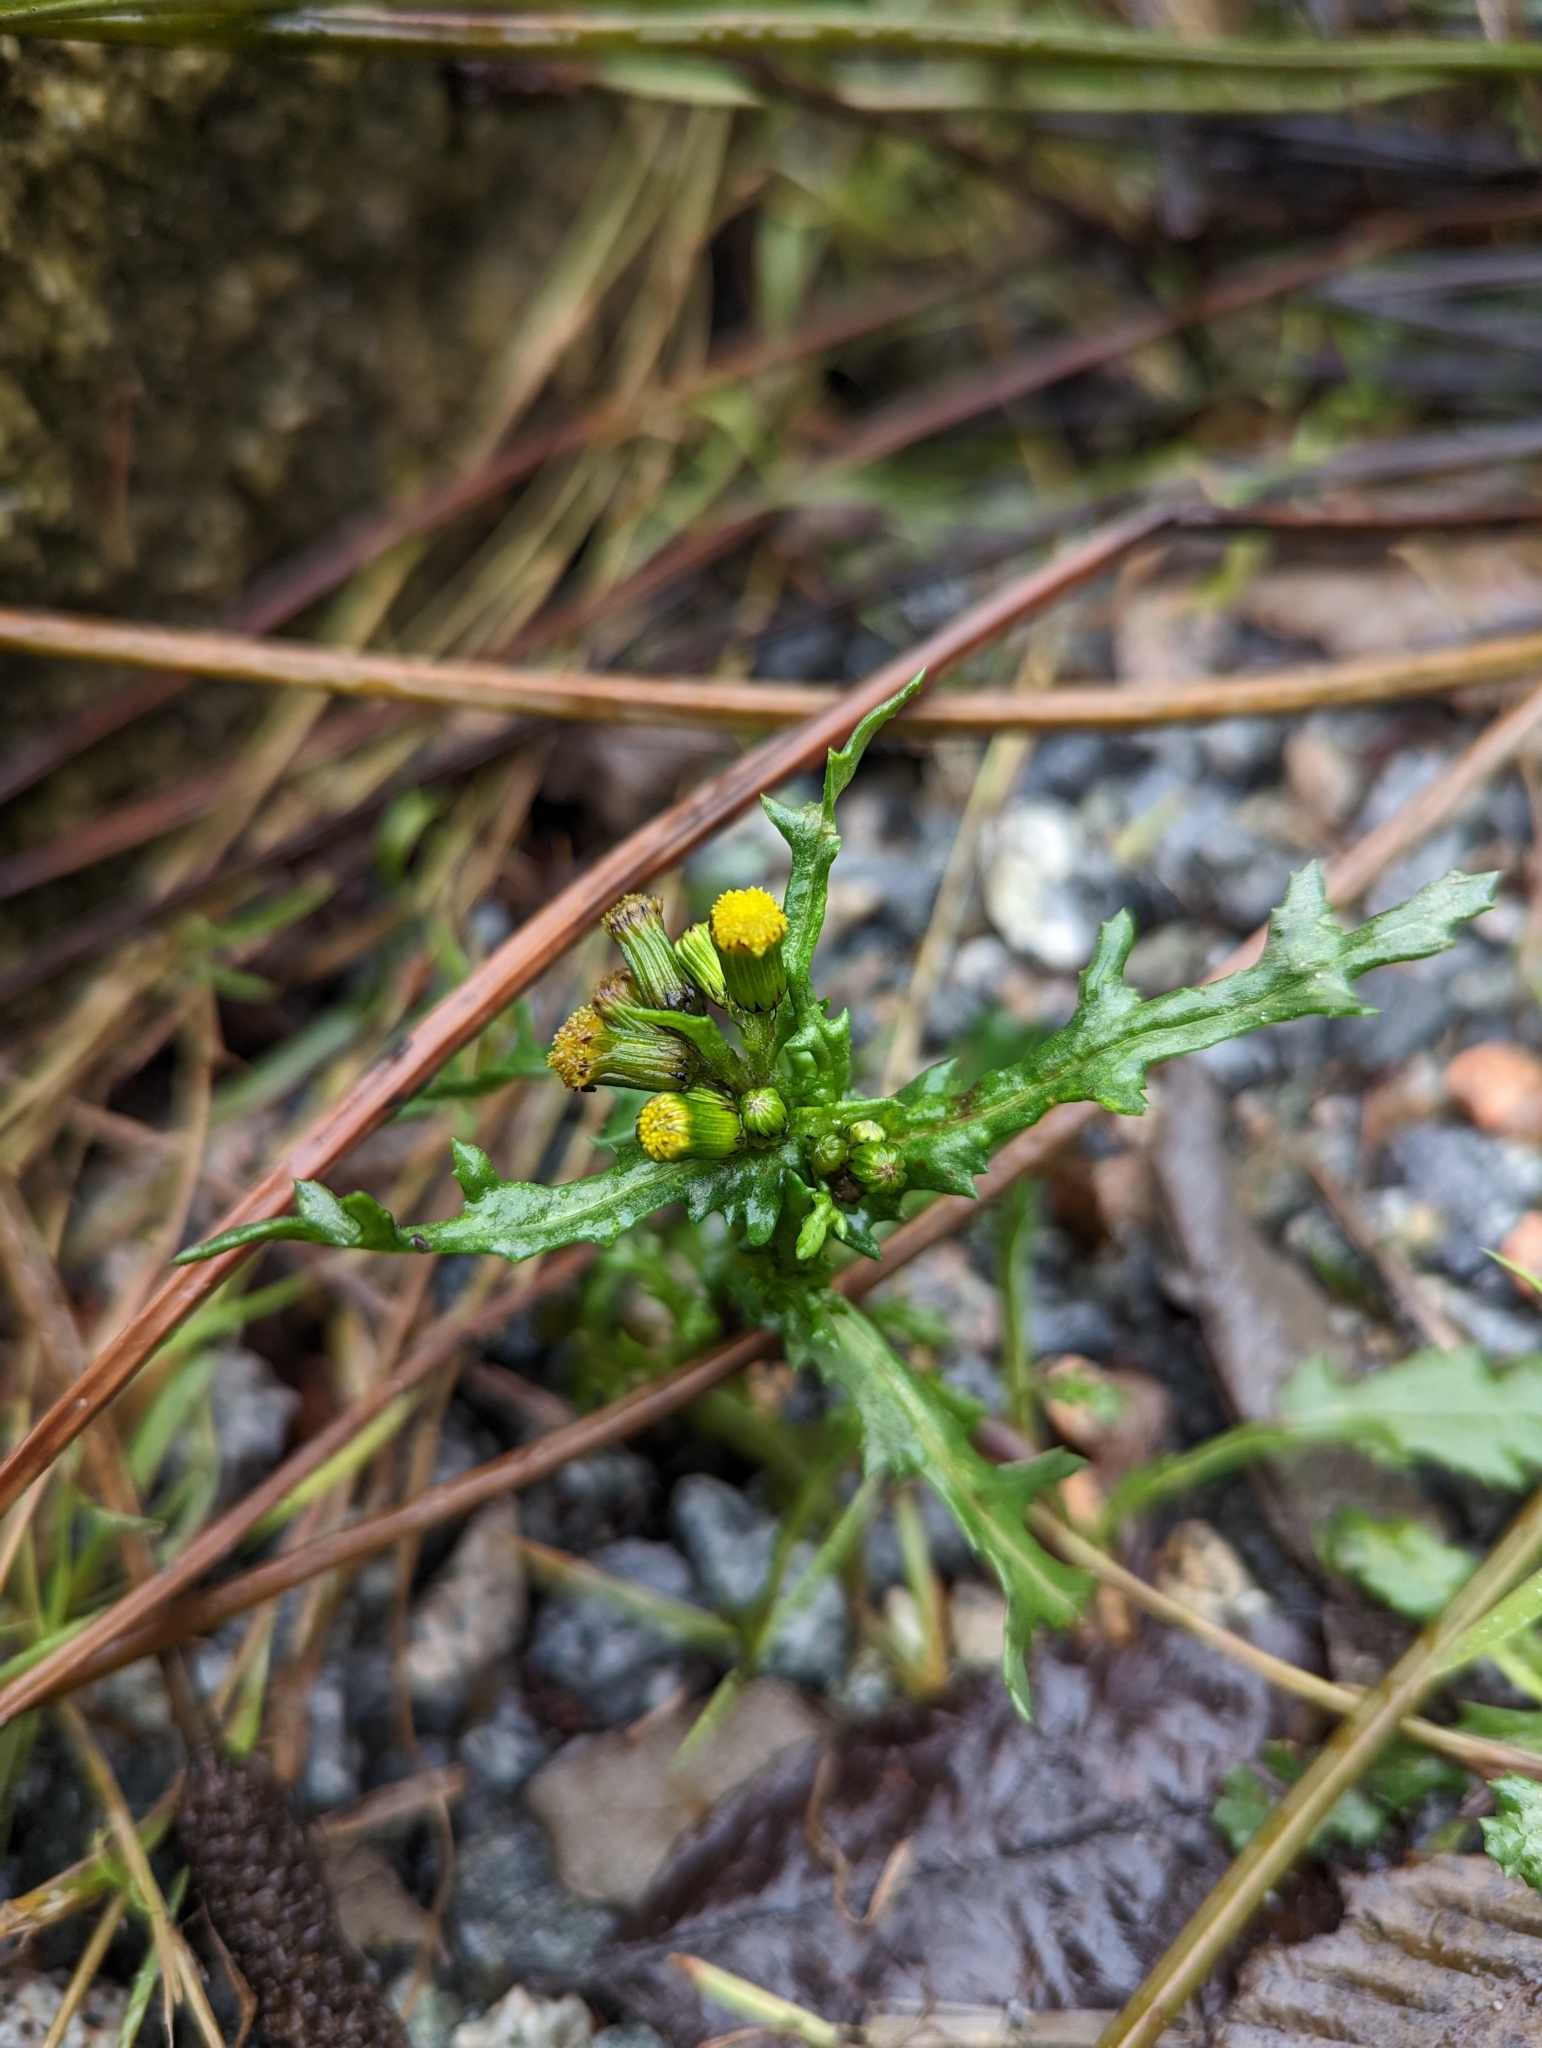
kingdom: Plantae
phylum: Tracheophyta
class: Magnoliopsida
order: Asterales
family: Asteraceae
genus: Senecio
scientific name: Senecio vulgaris
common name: Old-man-in-the-spring
